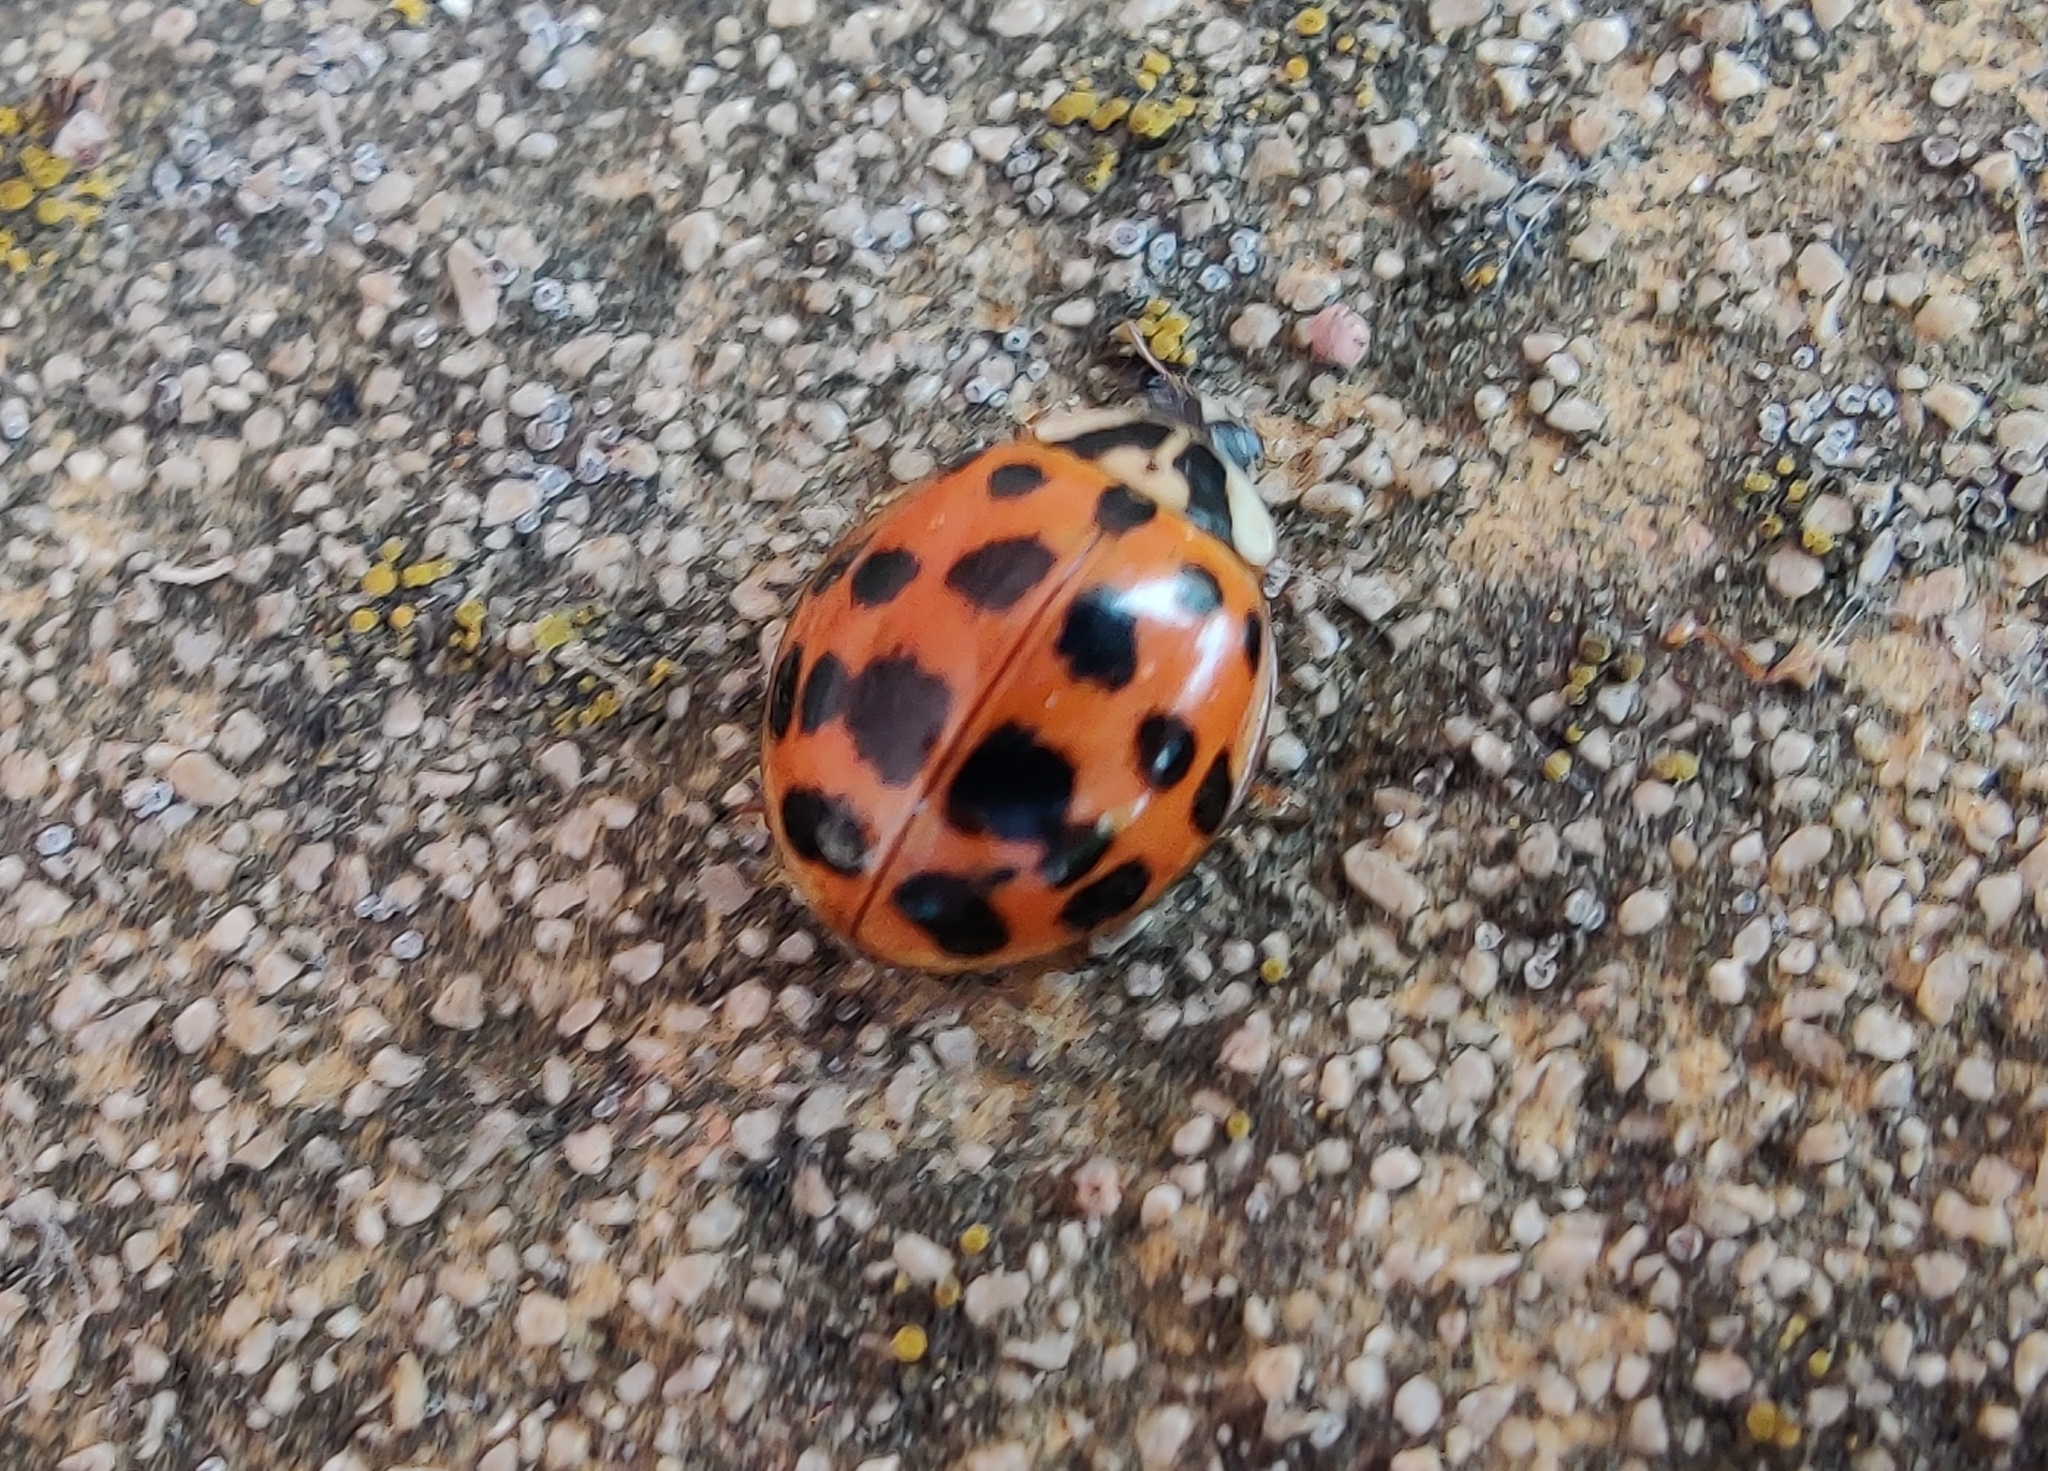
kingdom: Animalia
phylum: Arthropoda
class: Insecta
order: Coleoptera
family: Coccinellidae
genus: Harmonia
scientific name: Harmonia axyridis
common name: Harlequin ladybird
